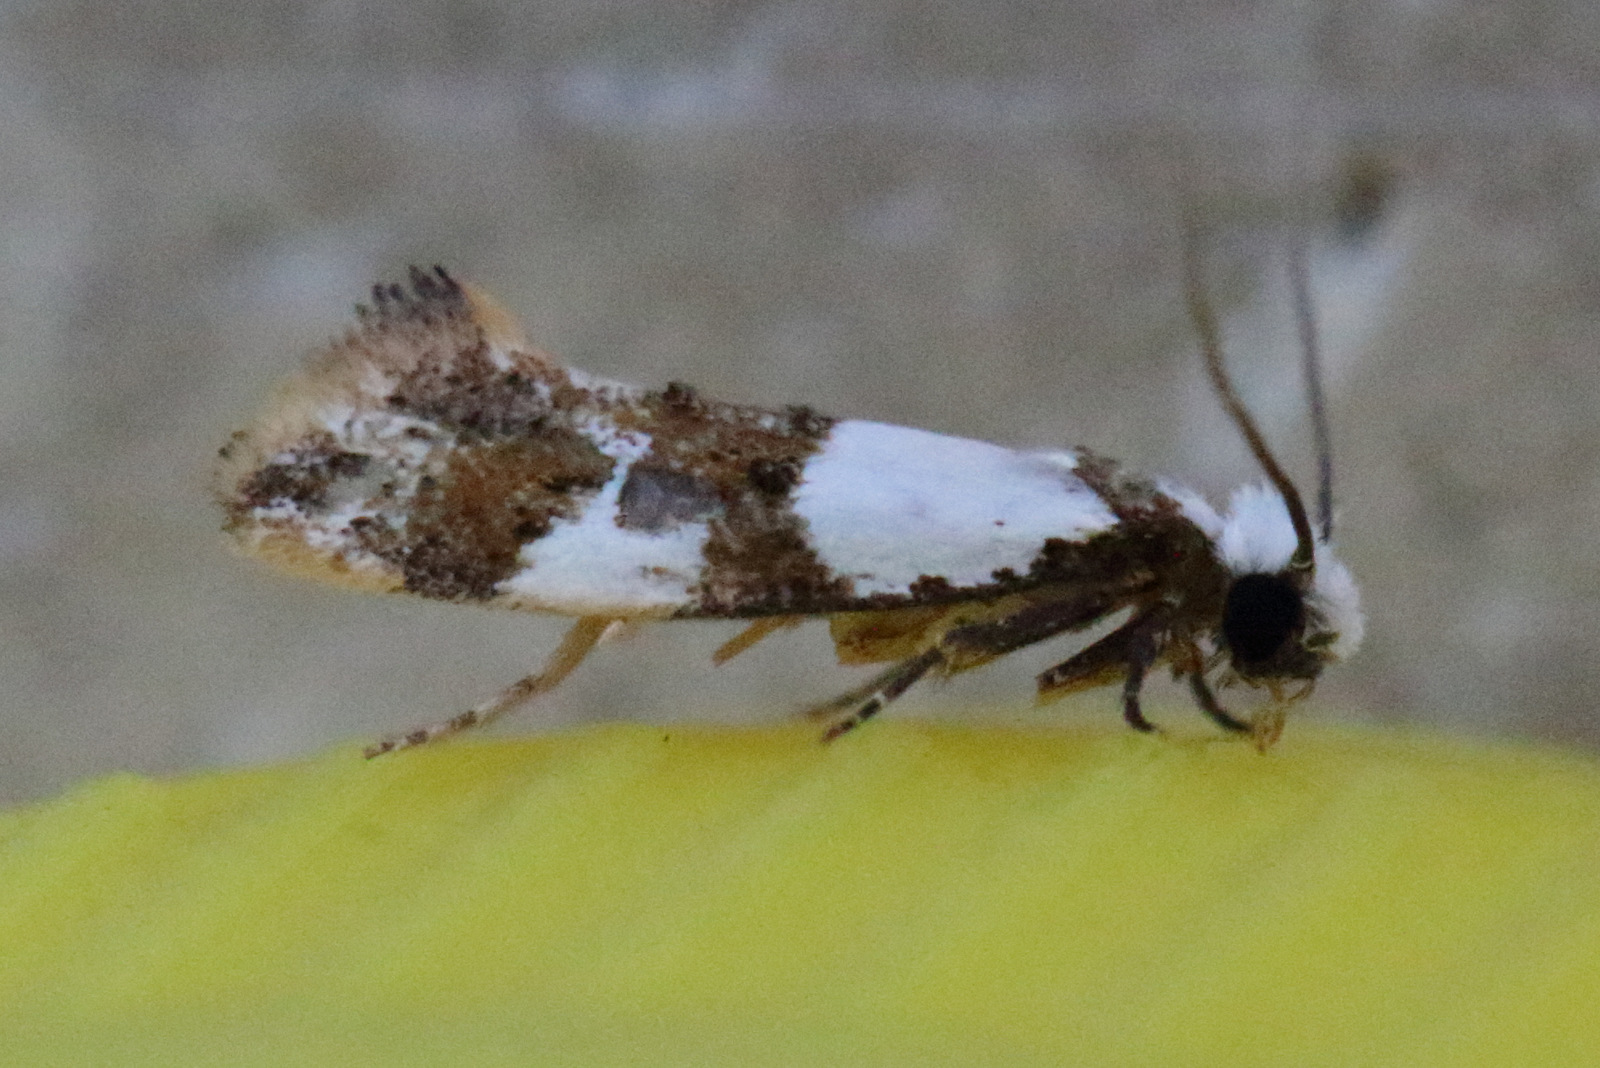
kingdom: Animalia
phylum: Arthropoda
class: Insecta
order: Lepidoptera
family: Tineidae
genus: Monopis
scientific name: Monopis meliorella
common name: Blotched monopis moth
